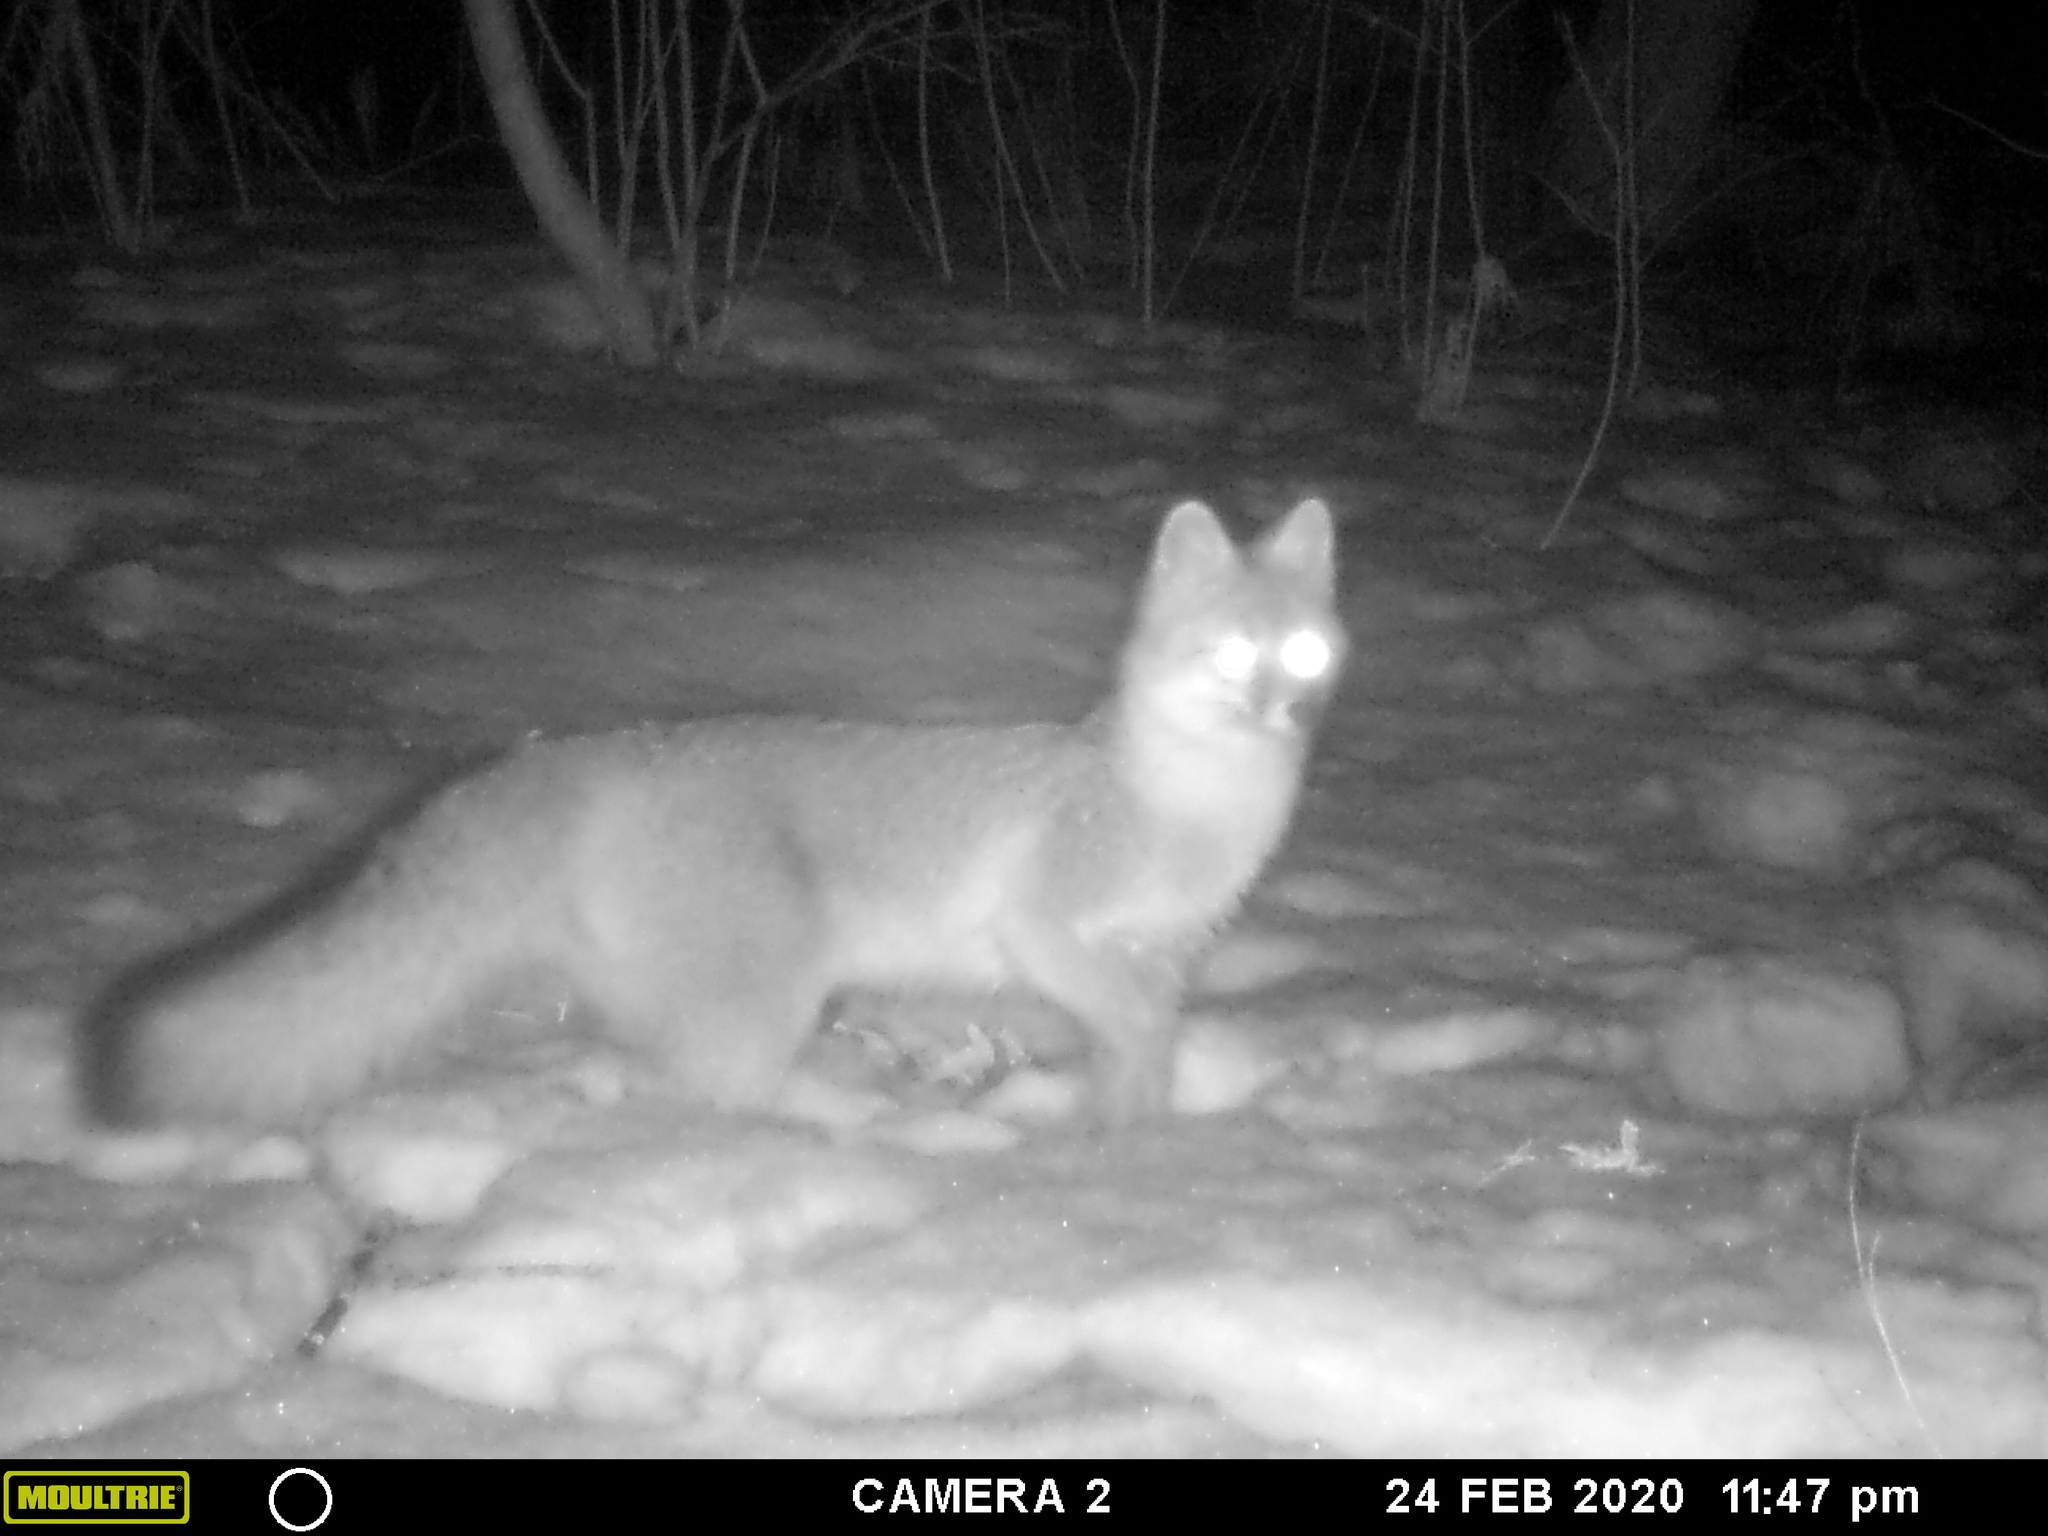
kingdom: Animalia
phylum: Chordata
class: Mammalia
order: Carnivora
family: Canidae
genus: Urocyon
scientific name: Urocyon cinereoargenteus
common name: Gray fox
